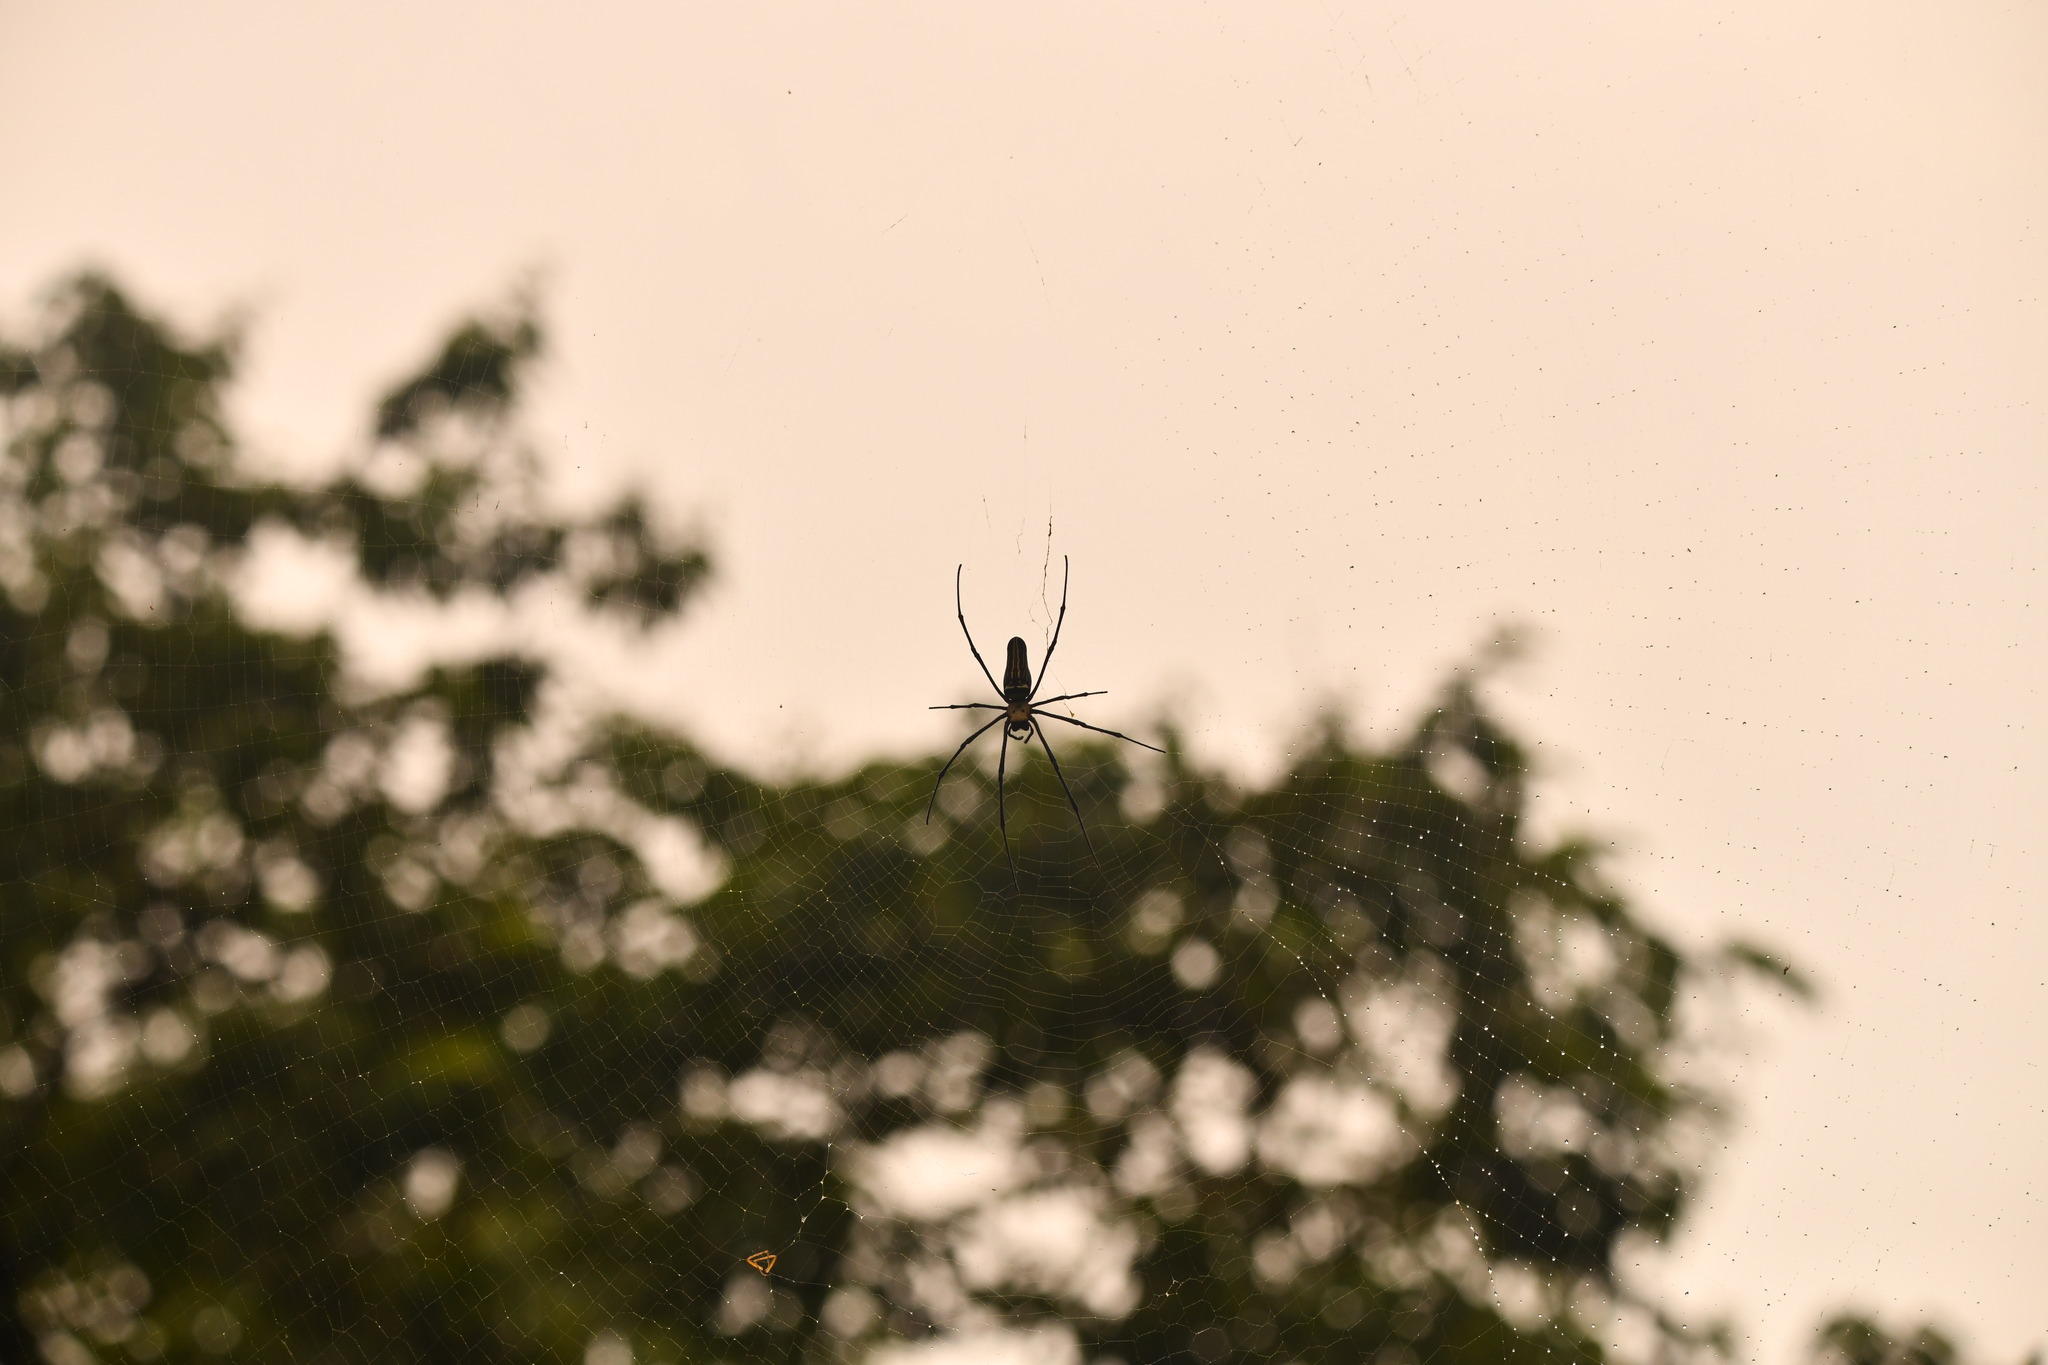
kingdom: Animalia
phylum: Arthropoda
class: Arachnida
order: Araneae
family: Araneidae
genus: Nephila
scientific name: Nephila pilipes
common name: Giant golden orb weaver
